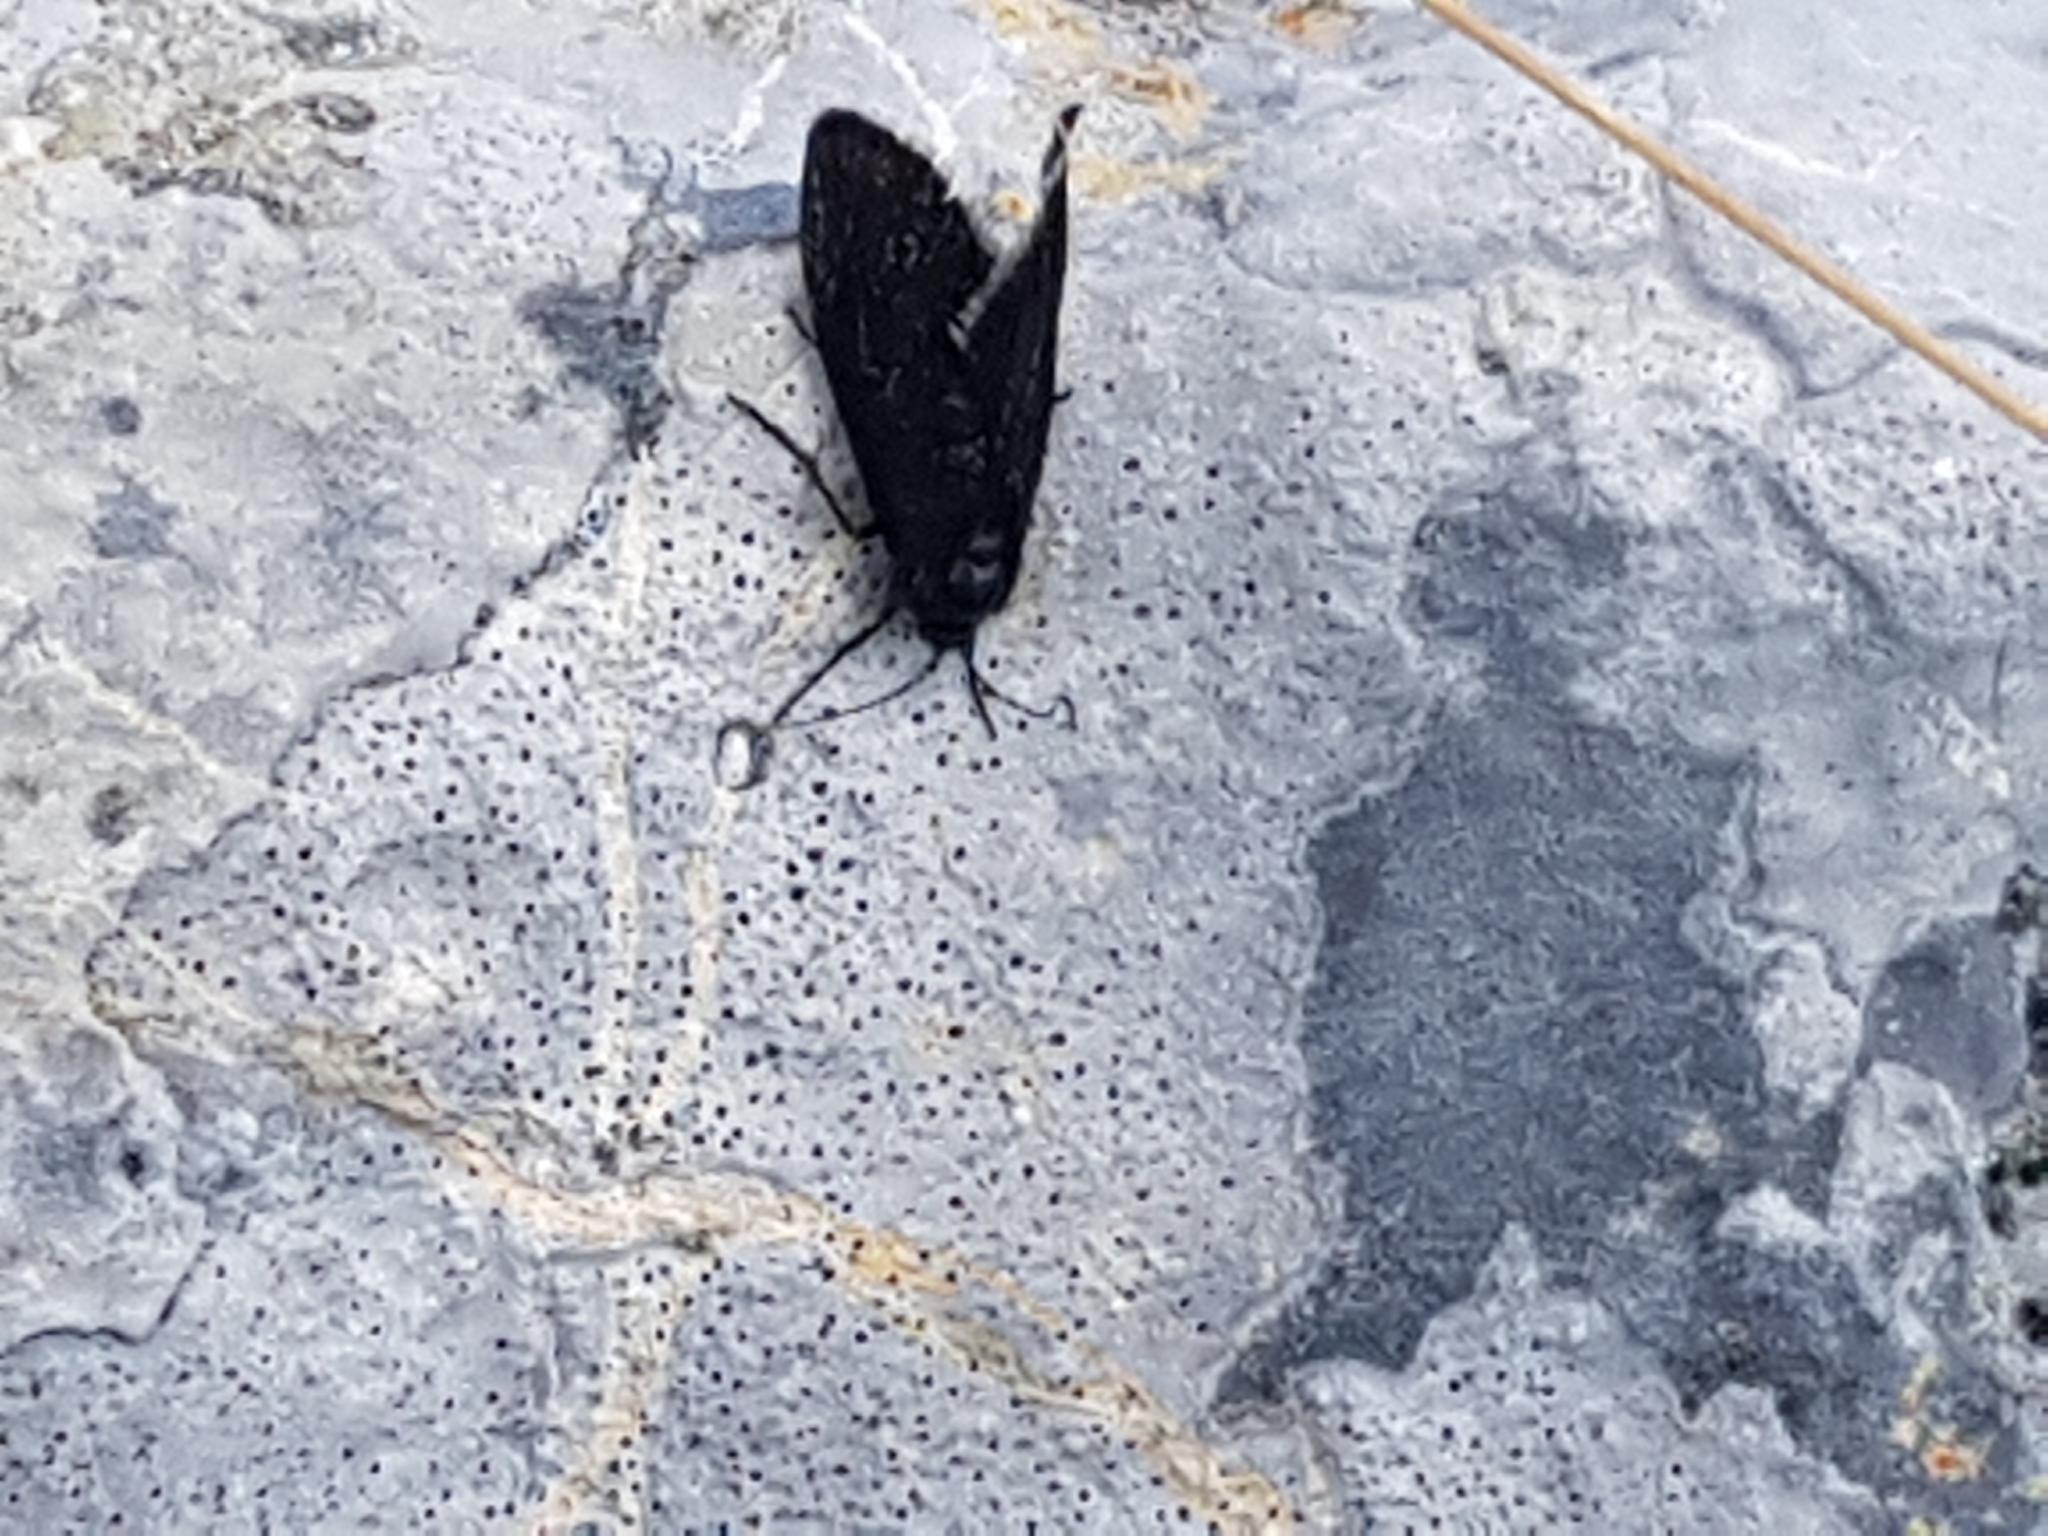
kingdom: Animalia
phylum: Arthropoda
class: Insecta
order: Lepidoptera
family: Psychidae
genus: Typhonia
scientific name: Typhonia ciliaris
